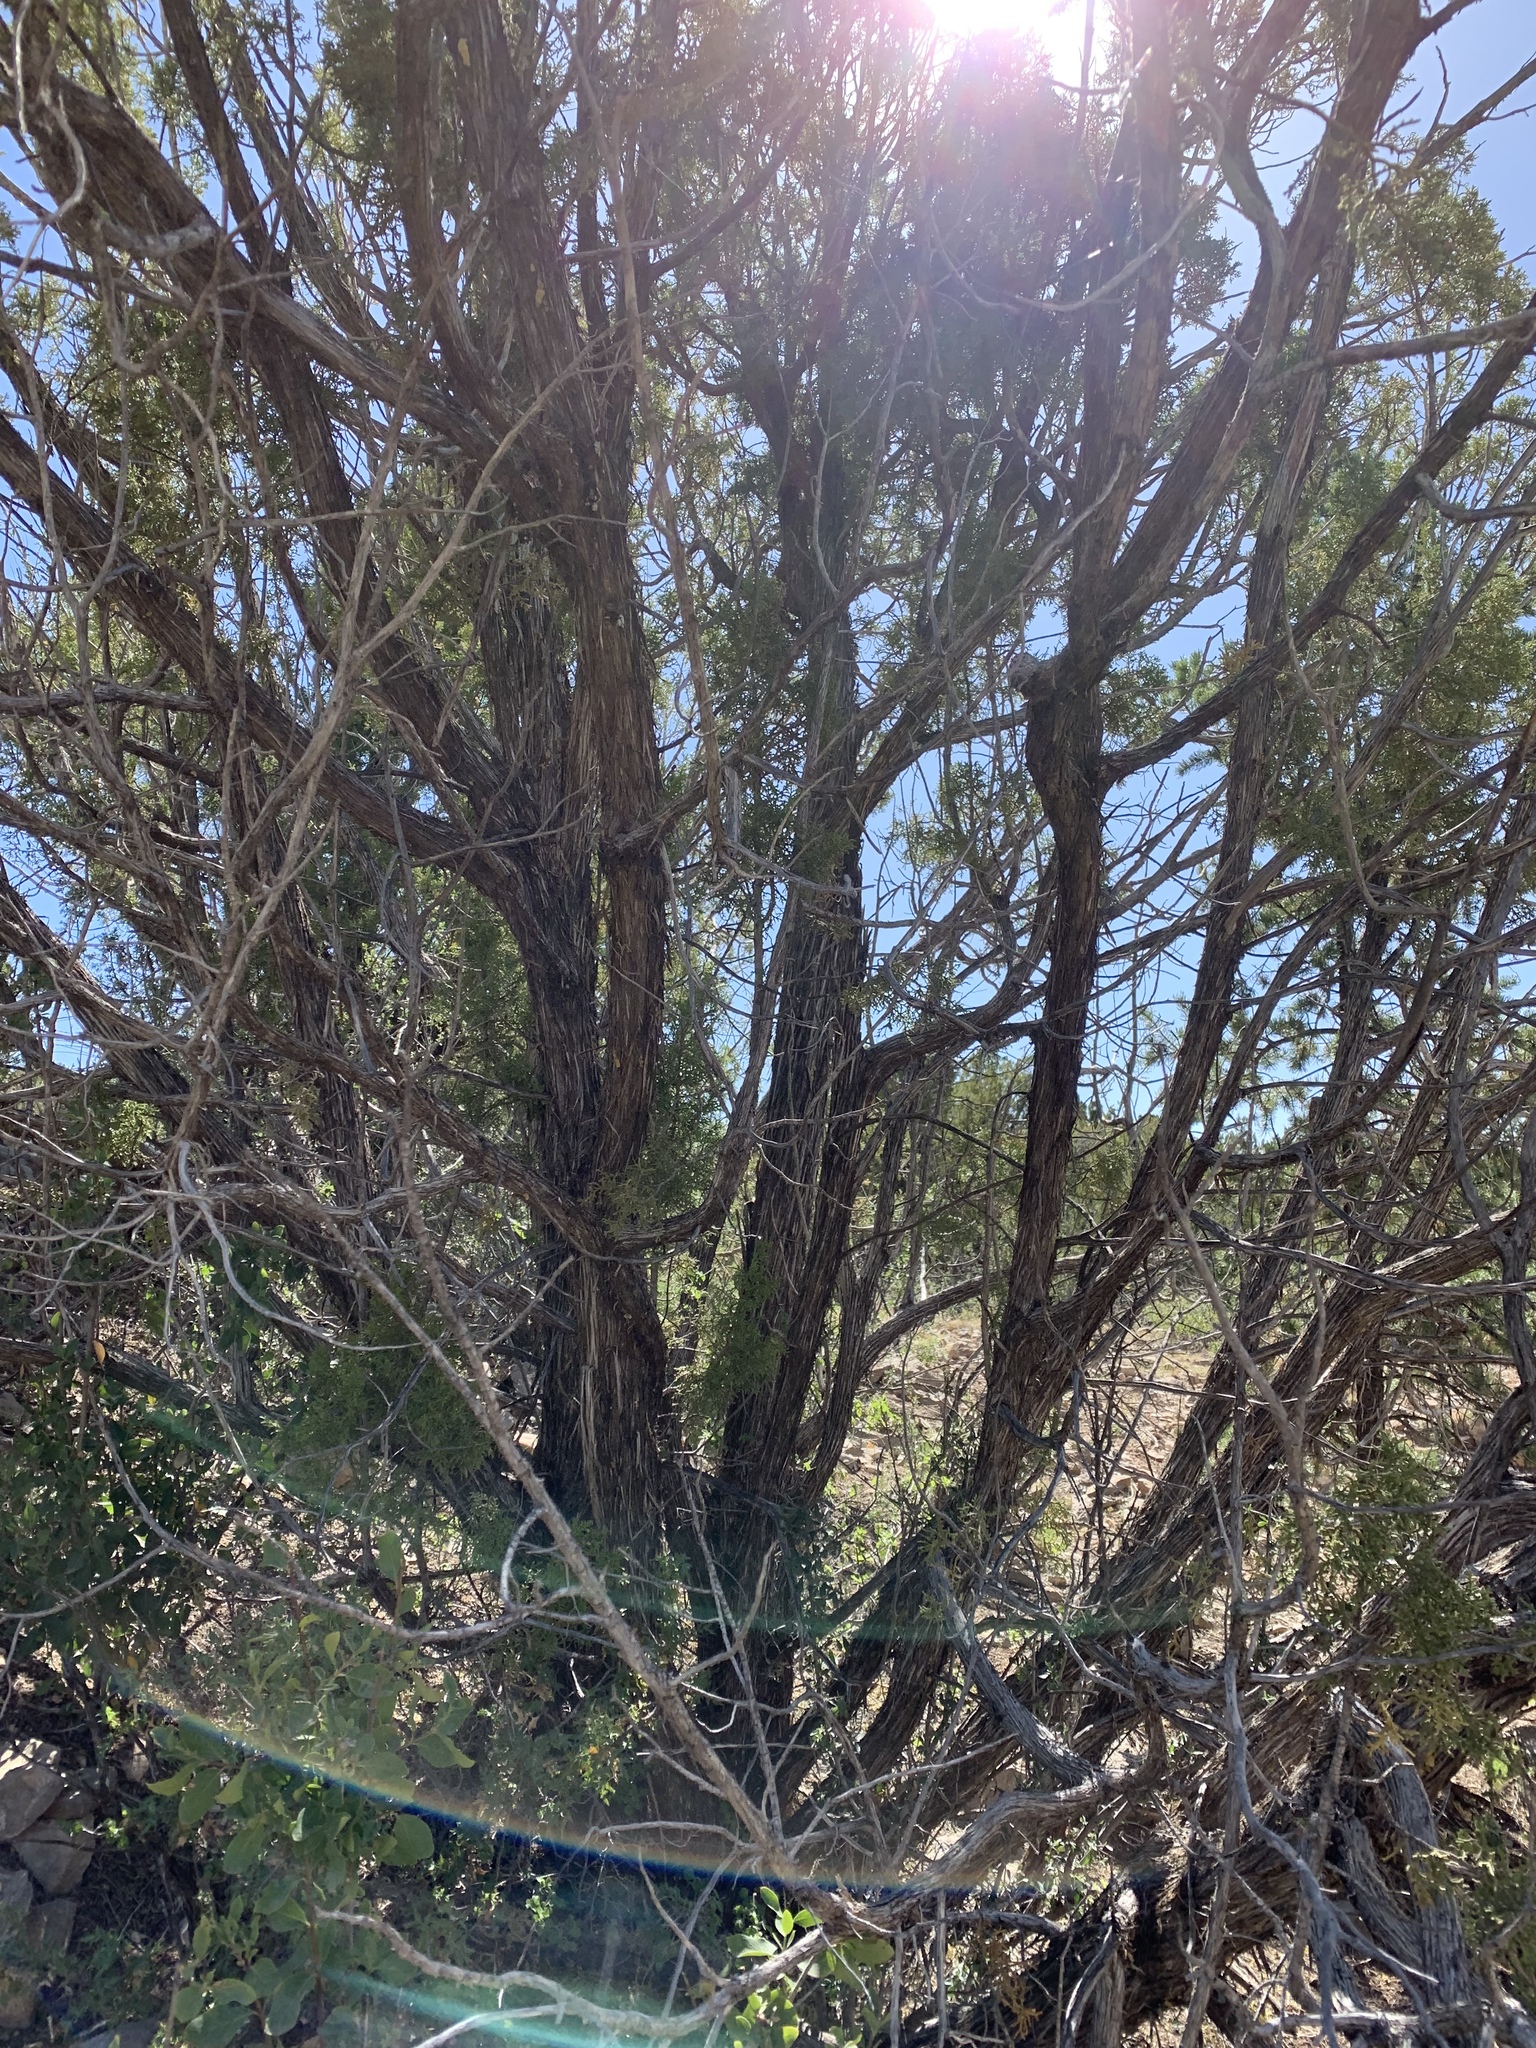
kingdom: Plantae
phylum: Tracheophyta
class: Pinopsida
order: Pinales
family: Cupressaceae
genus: Juniperus
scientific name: Juniperus monosperma
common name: One-seed juniper
